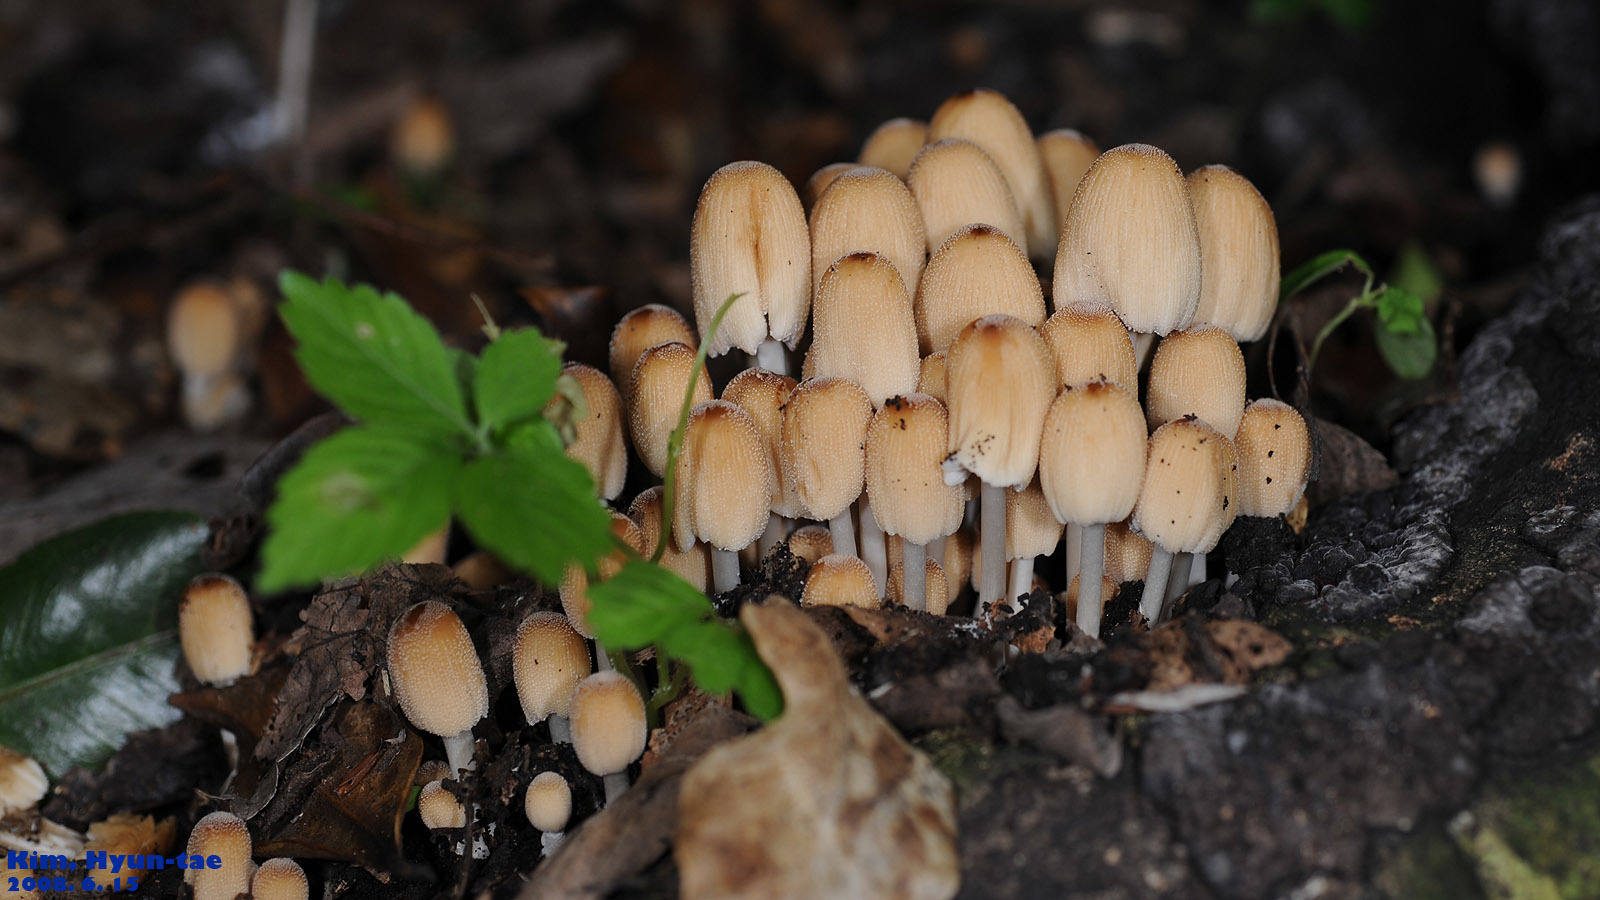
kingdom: Fungi
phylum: Basidiomycota
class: Agaricomycetes
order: Agaricales
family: Psathyrellaceae
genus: Coprinellus
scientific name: Coprinellus micaceus
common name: Glistening ink-cap
